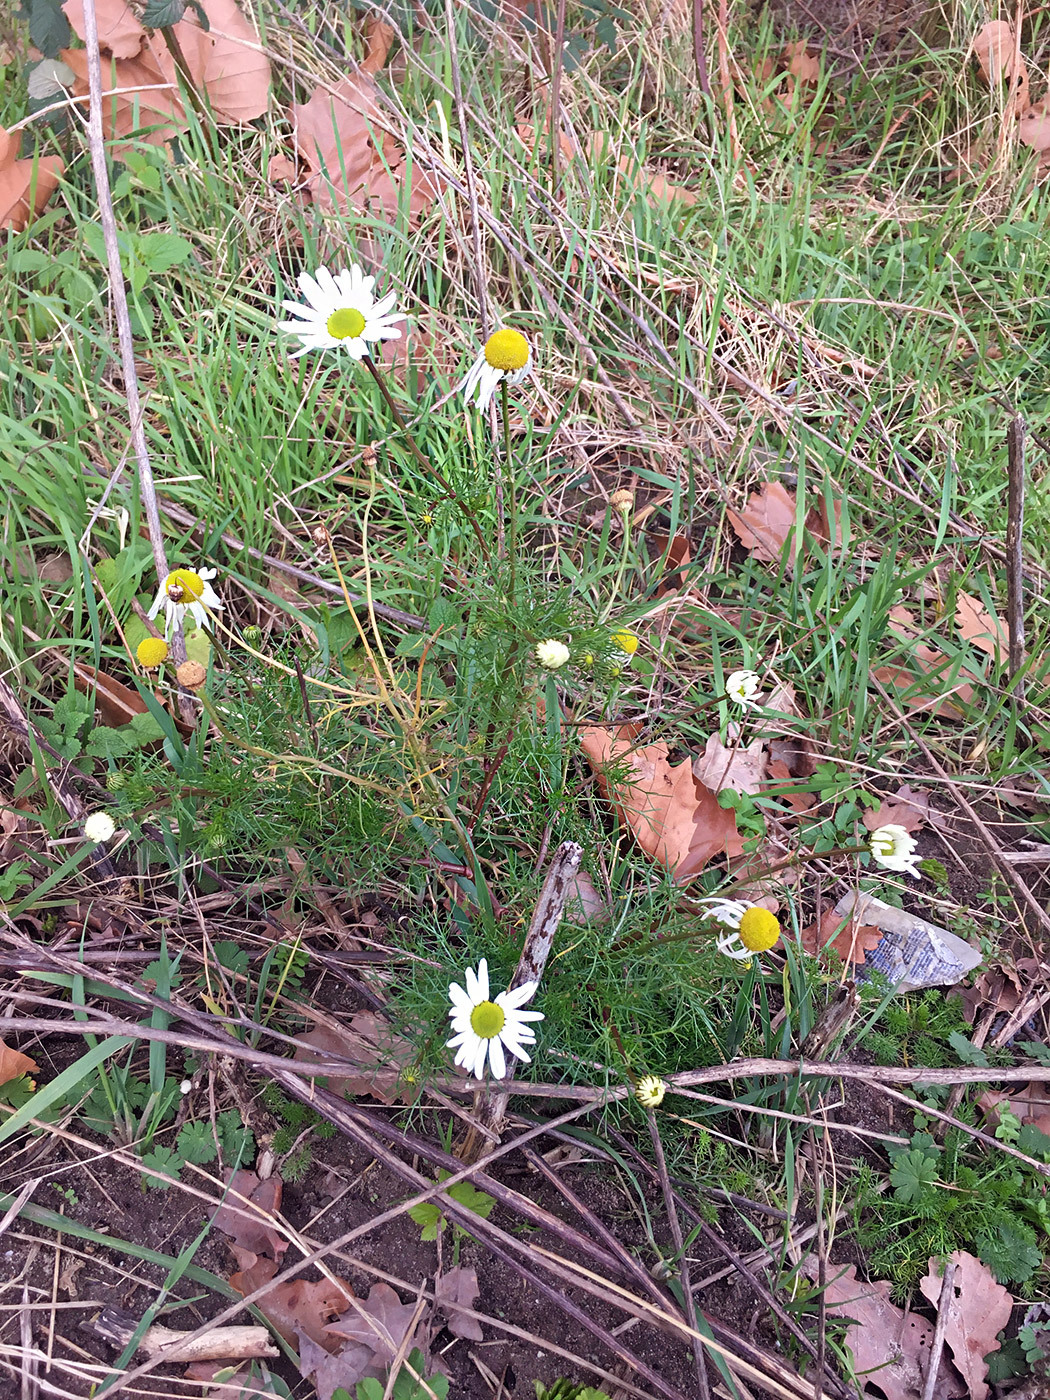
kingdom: Plantae
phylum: Tracheophyta
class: Magnoliopsida
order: Asterales
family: Asteraceae
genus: Tripleurospermum
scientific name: Tripleurospermum inodorum
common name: Scentless mayweed
